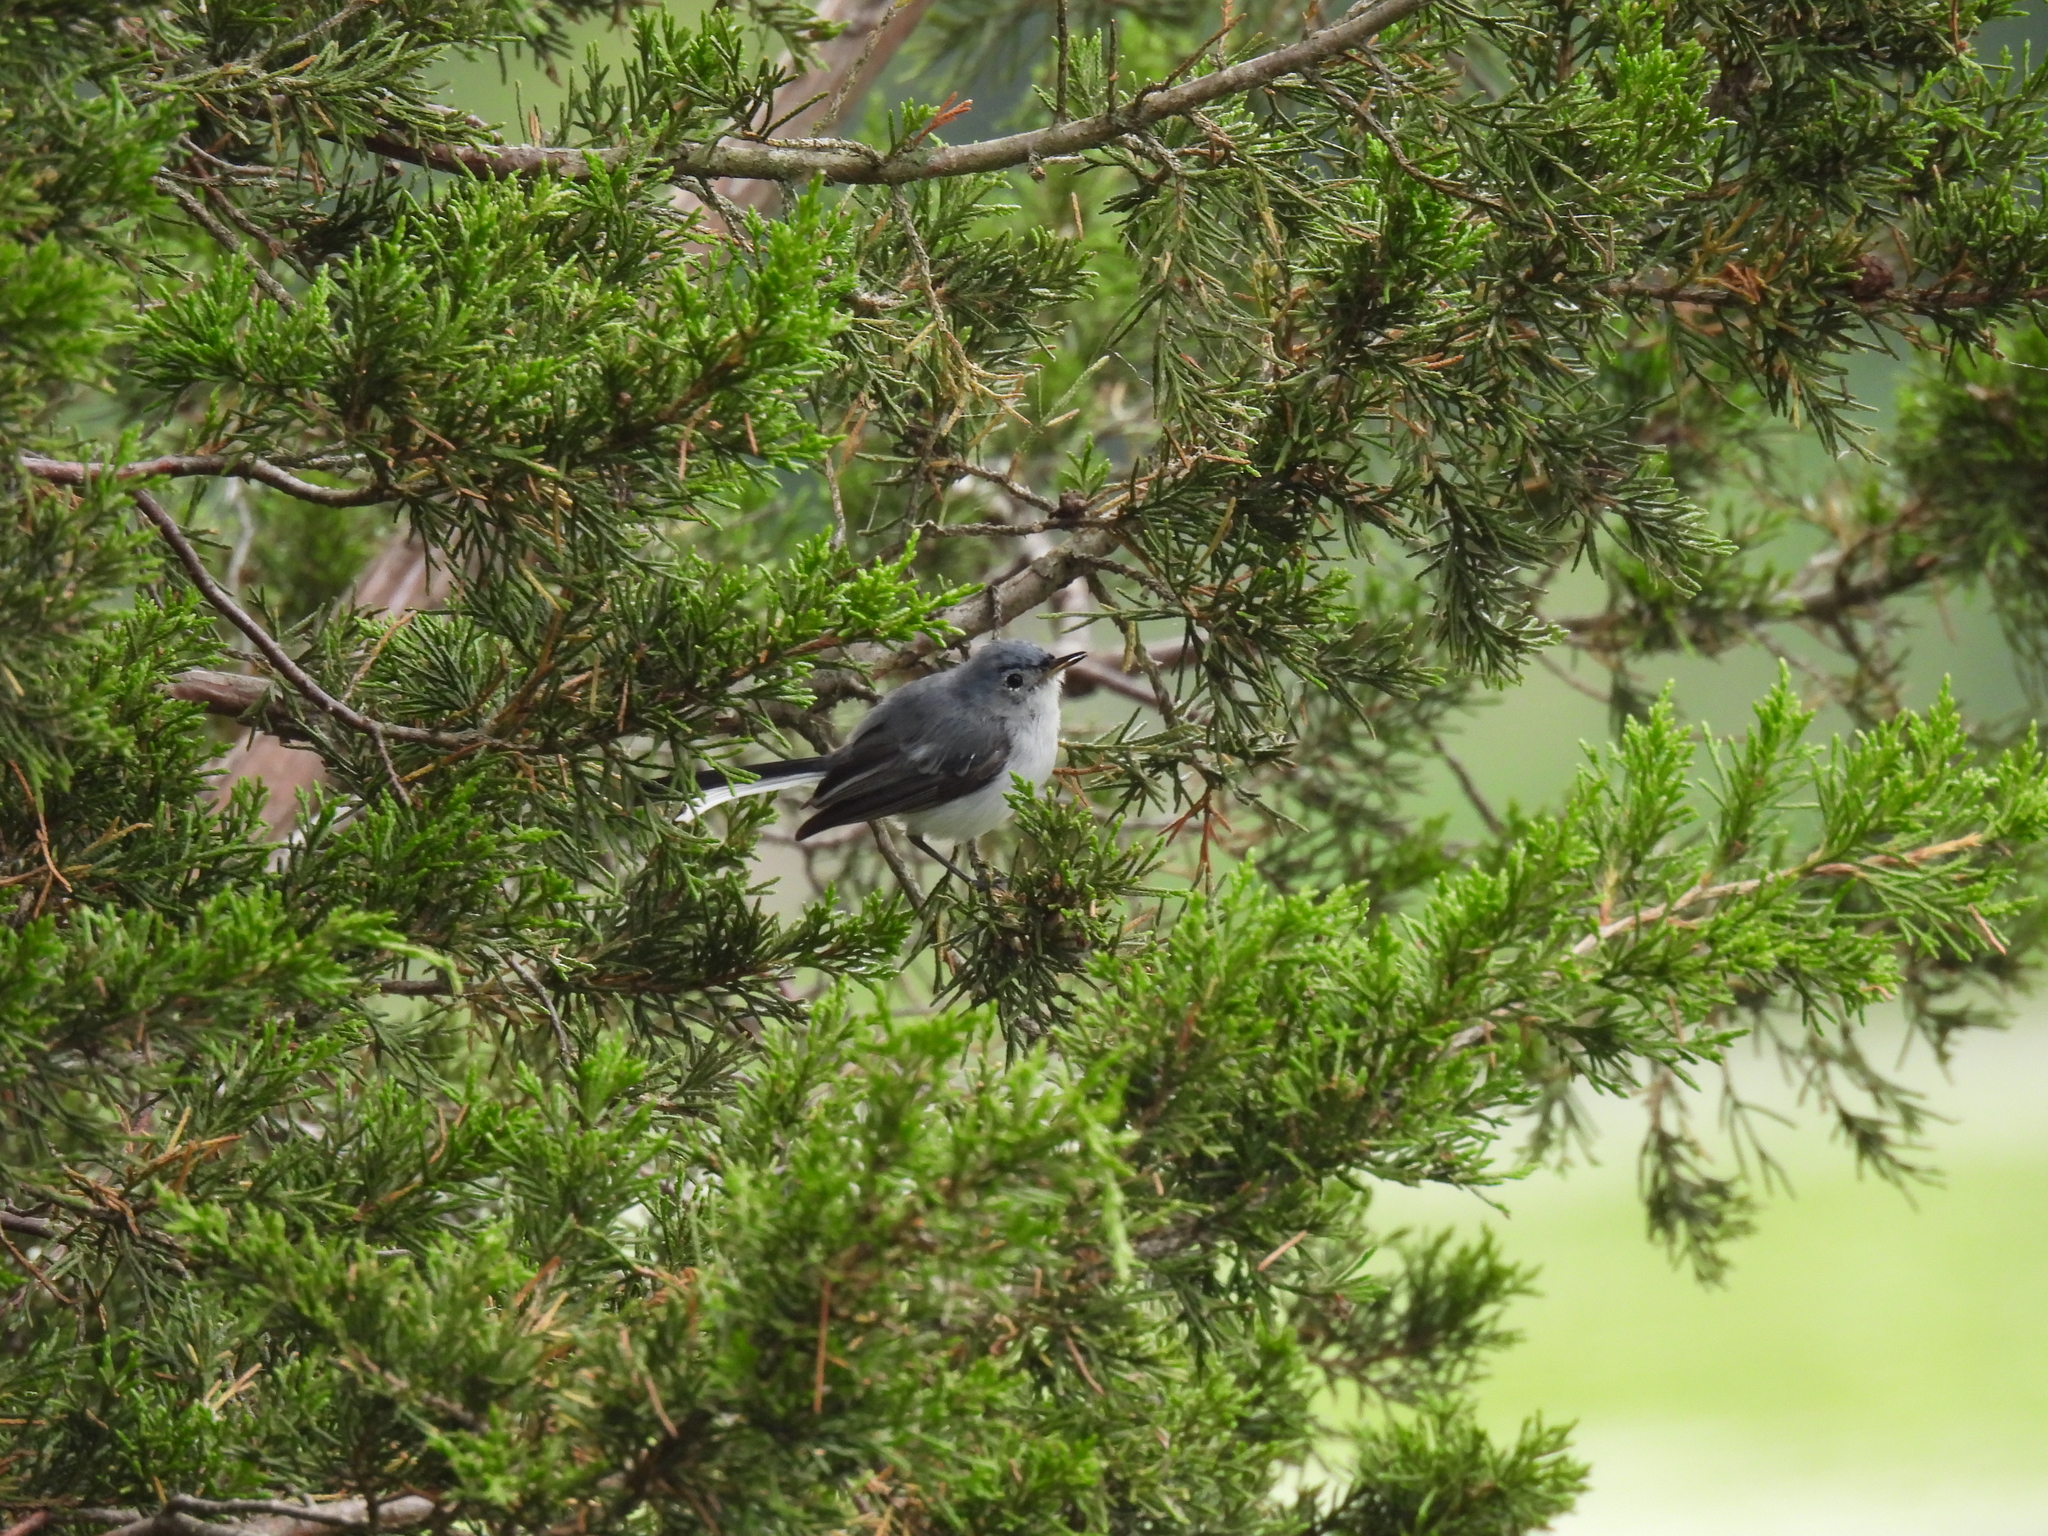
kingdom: Animalia
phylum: Chordata
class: Aves
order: Passeriformes
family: Polioptilidae
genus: Polioptila
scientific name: Polioptila caerulea
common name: Blue-gray gnatcatcher
